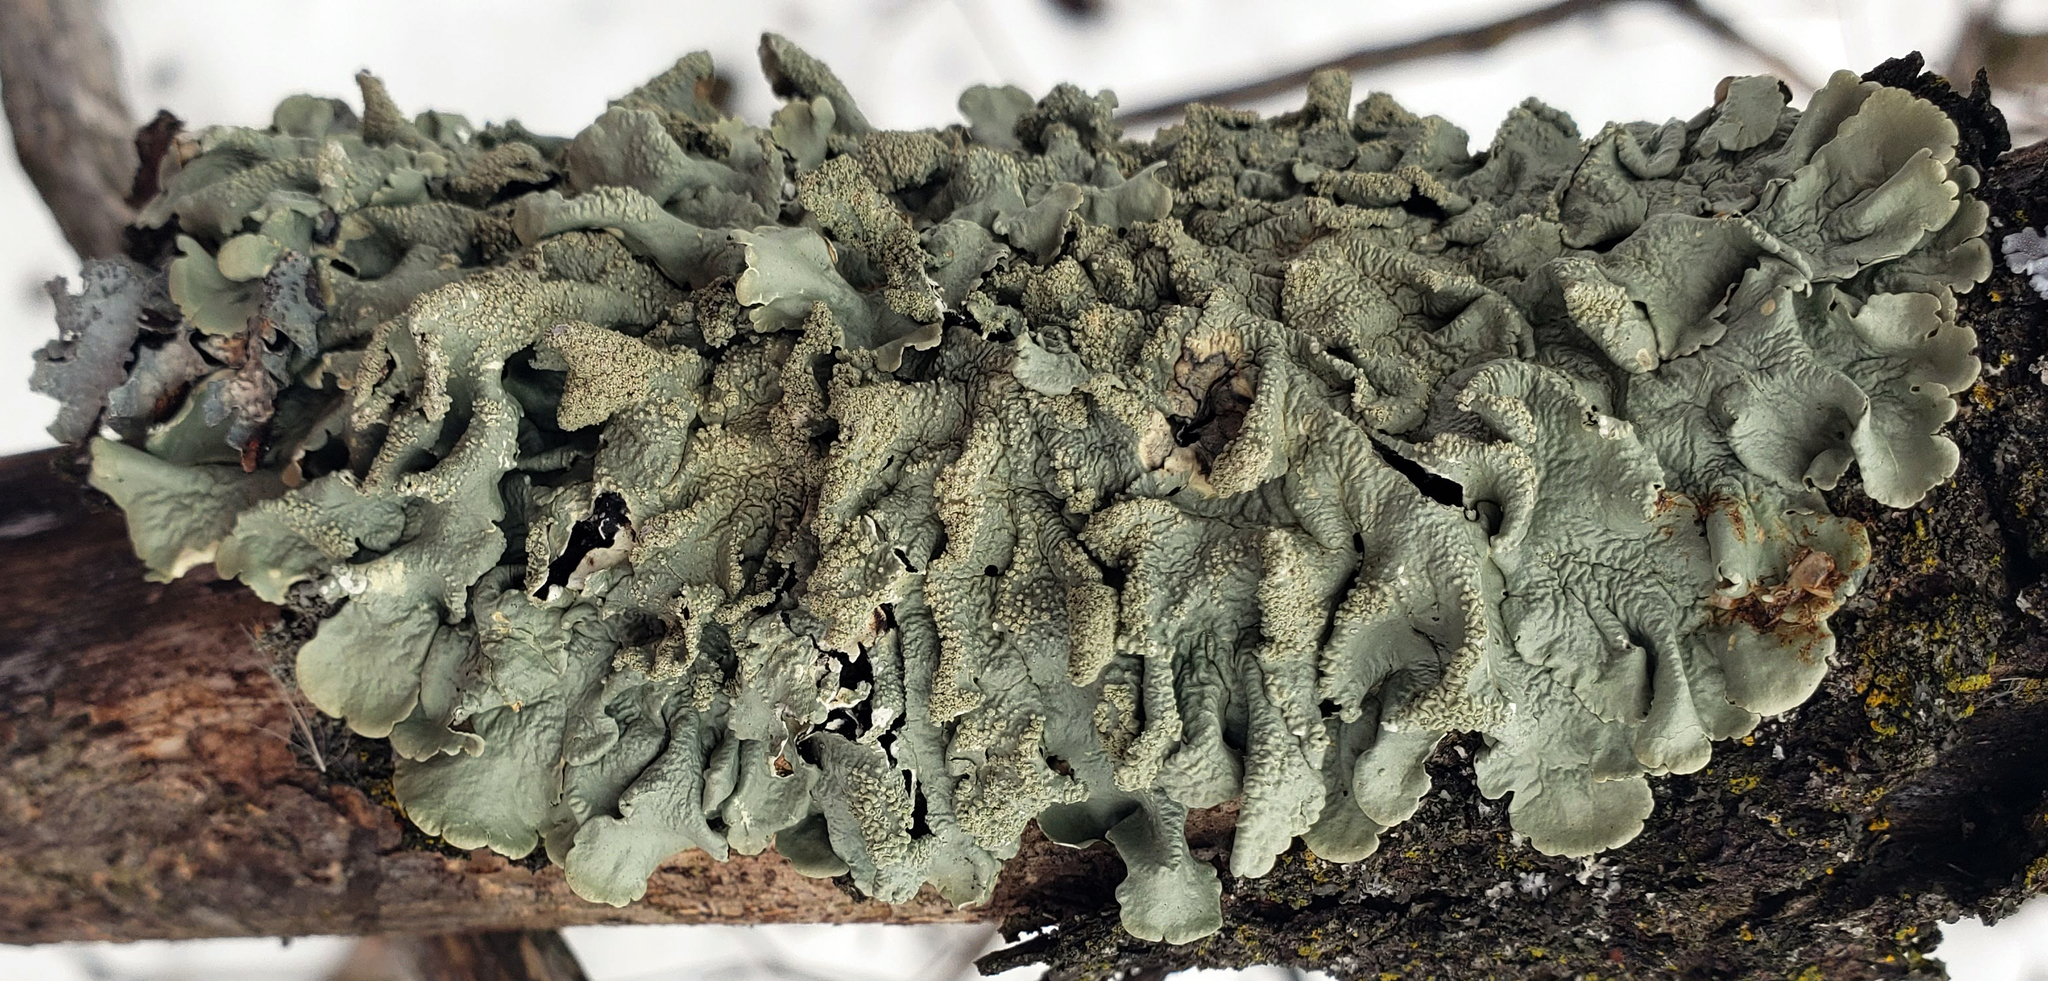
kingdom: Fungi
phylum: Ascomycota
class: Lecanoromycetes
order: Lecanorales
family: Parmeliaceae
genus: Flavoparmelia
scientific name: Flavoparmelia caperata
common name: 40-mile per hour lichen
